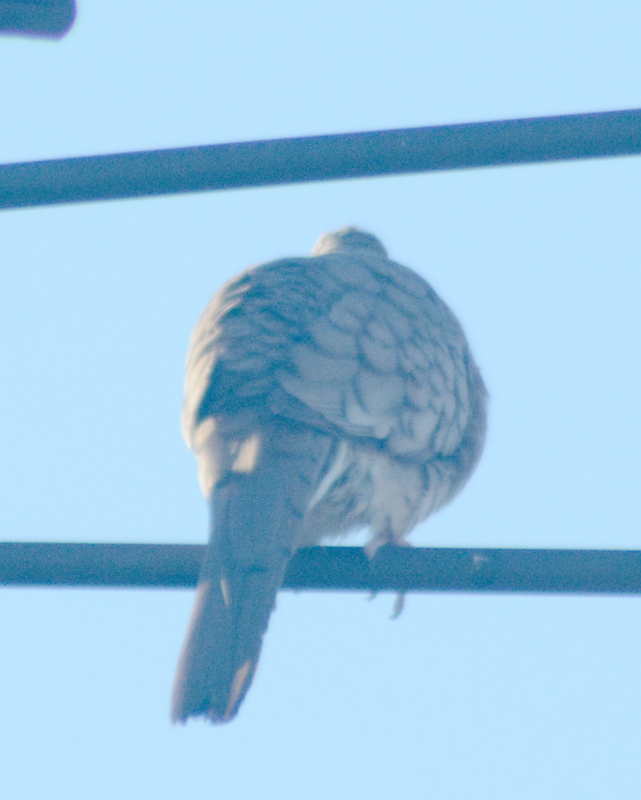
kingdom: Animalia
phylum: Chordata
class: Aves
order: Columbiformes
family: Columbidae
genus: Columbina
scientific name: Columbina inca
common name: Inca dove
